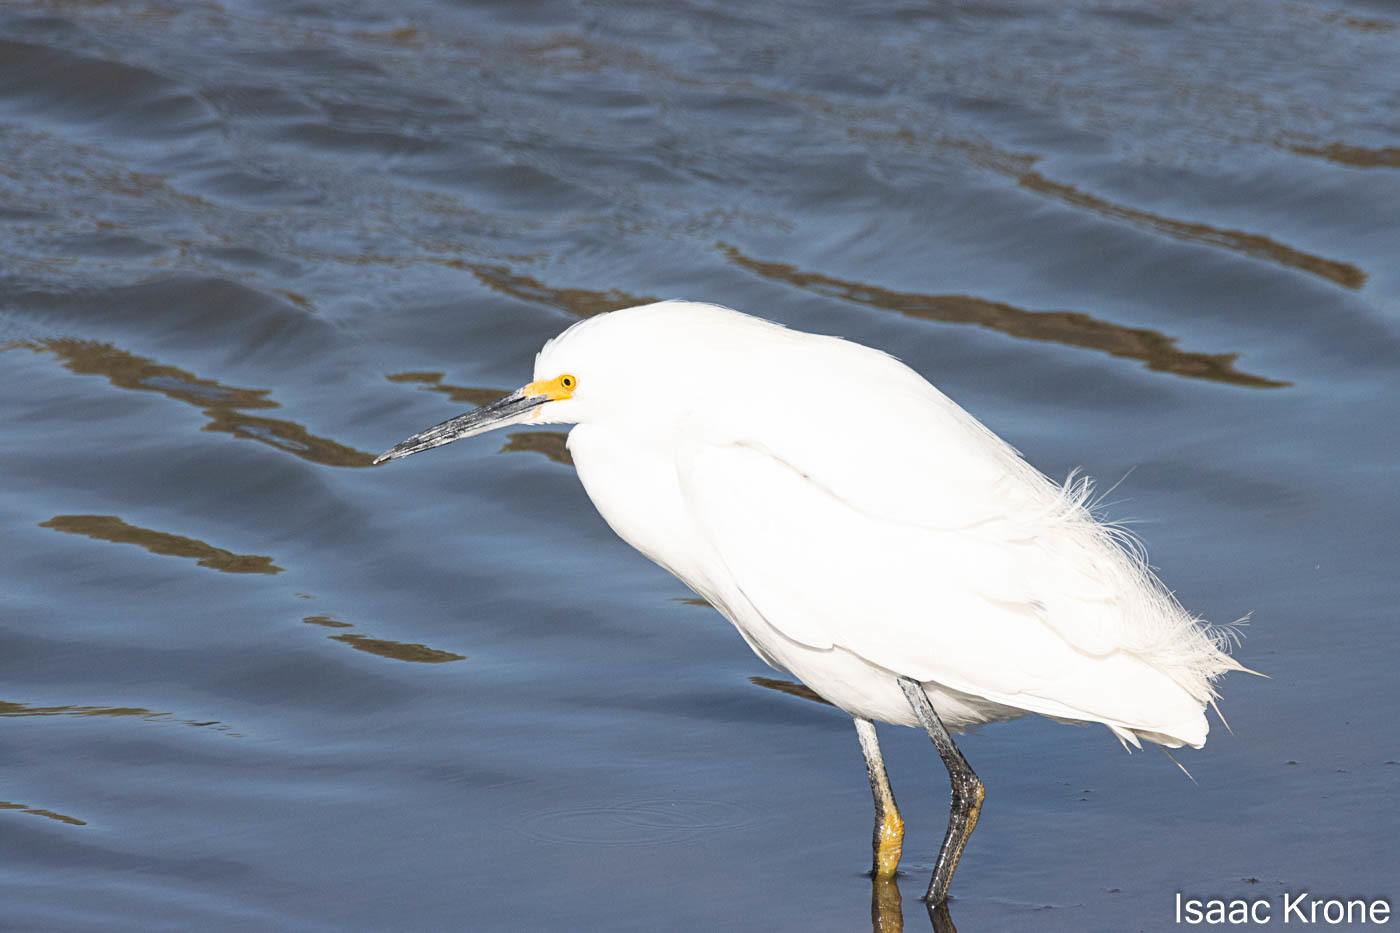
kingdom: Animalia
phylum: Chordata
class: Aves
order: Pelecaniformes
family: Ardeidae
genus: Egretta
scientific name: Egretta thula
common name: Snowy egret
